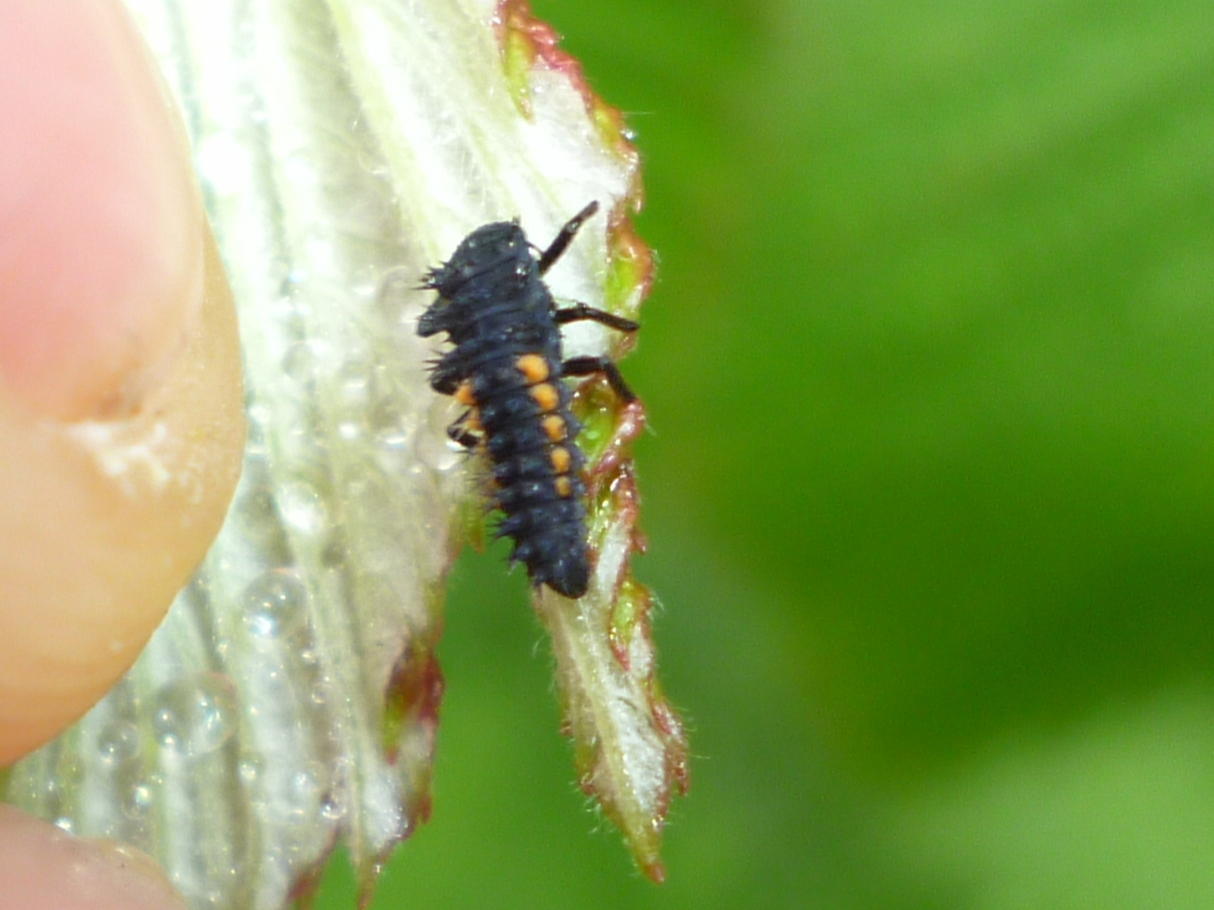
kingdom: Animalia
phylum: Arthropoda
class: Insecta
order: Coleoptera
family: Coccinellidae
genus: Harmonia
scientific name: Harmonia axyridis
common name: Harlequin ladybird
